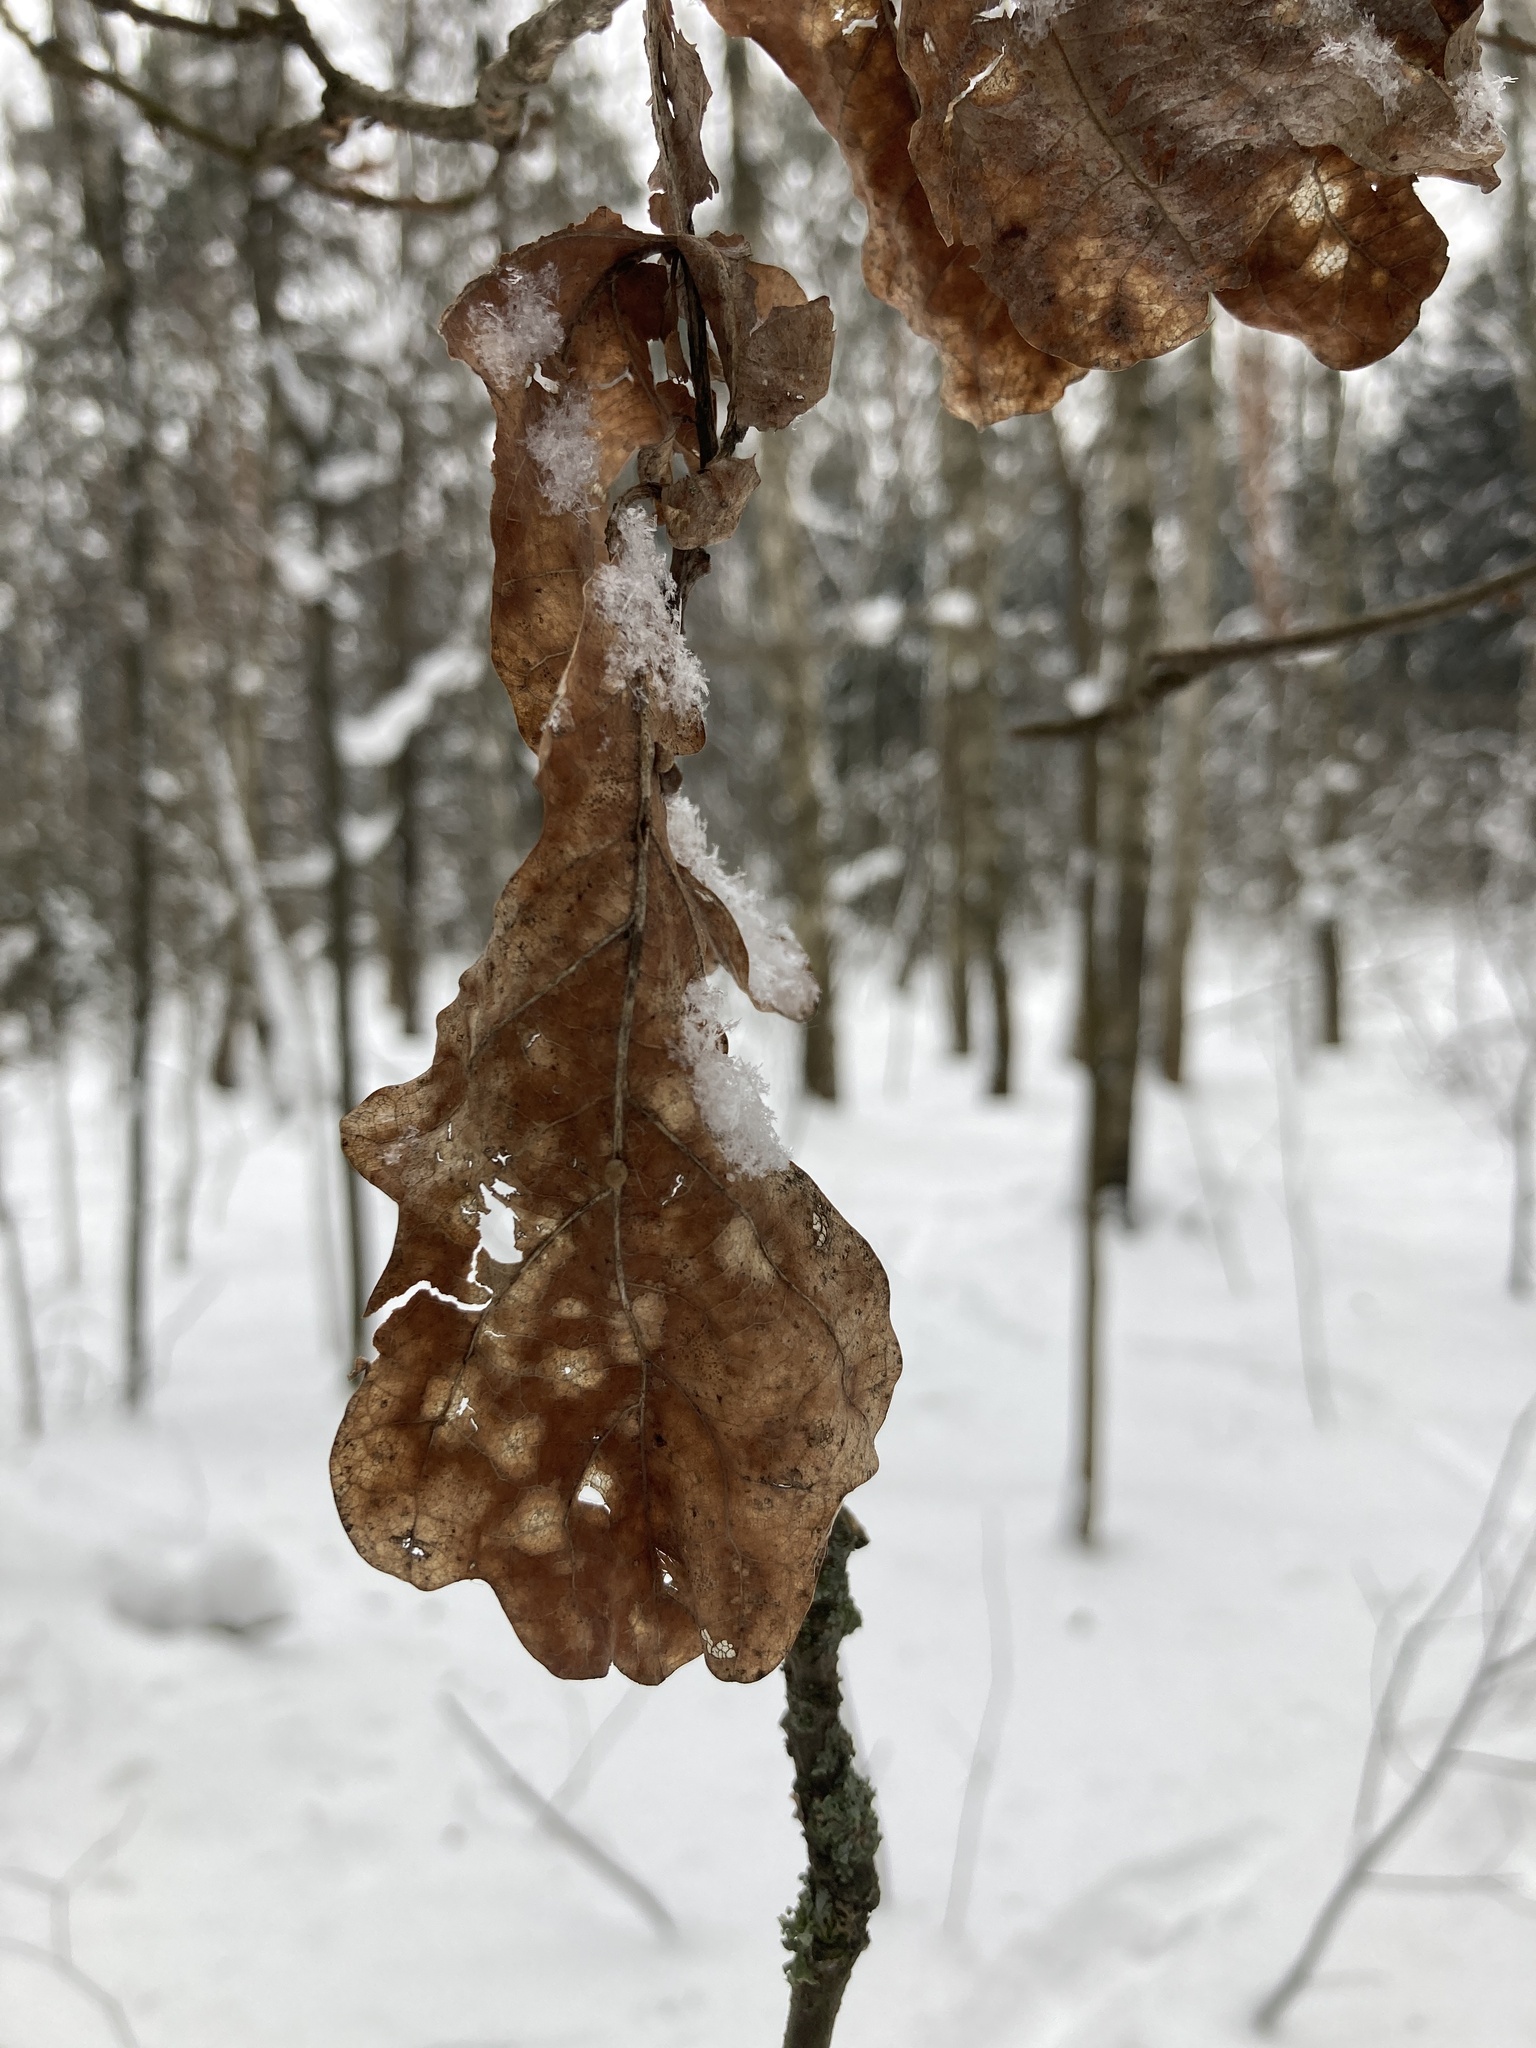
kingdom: Plantae
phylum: Tracheophyta
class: Magnoliopsida
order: Fagales
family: Fagaceae
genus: Quercus
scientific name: Quercus robur
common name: Pedunculate oak
